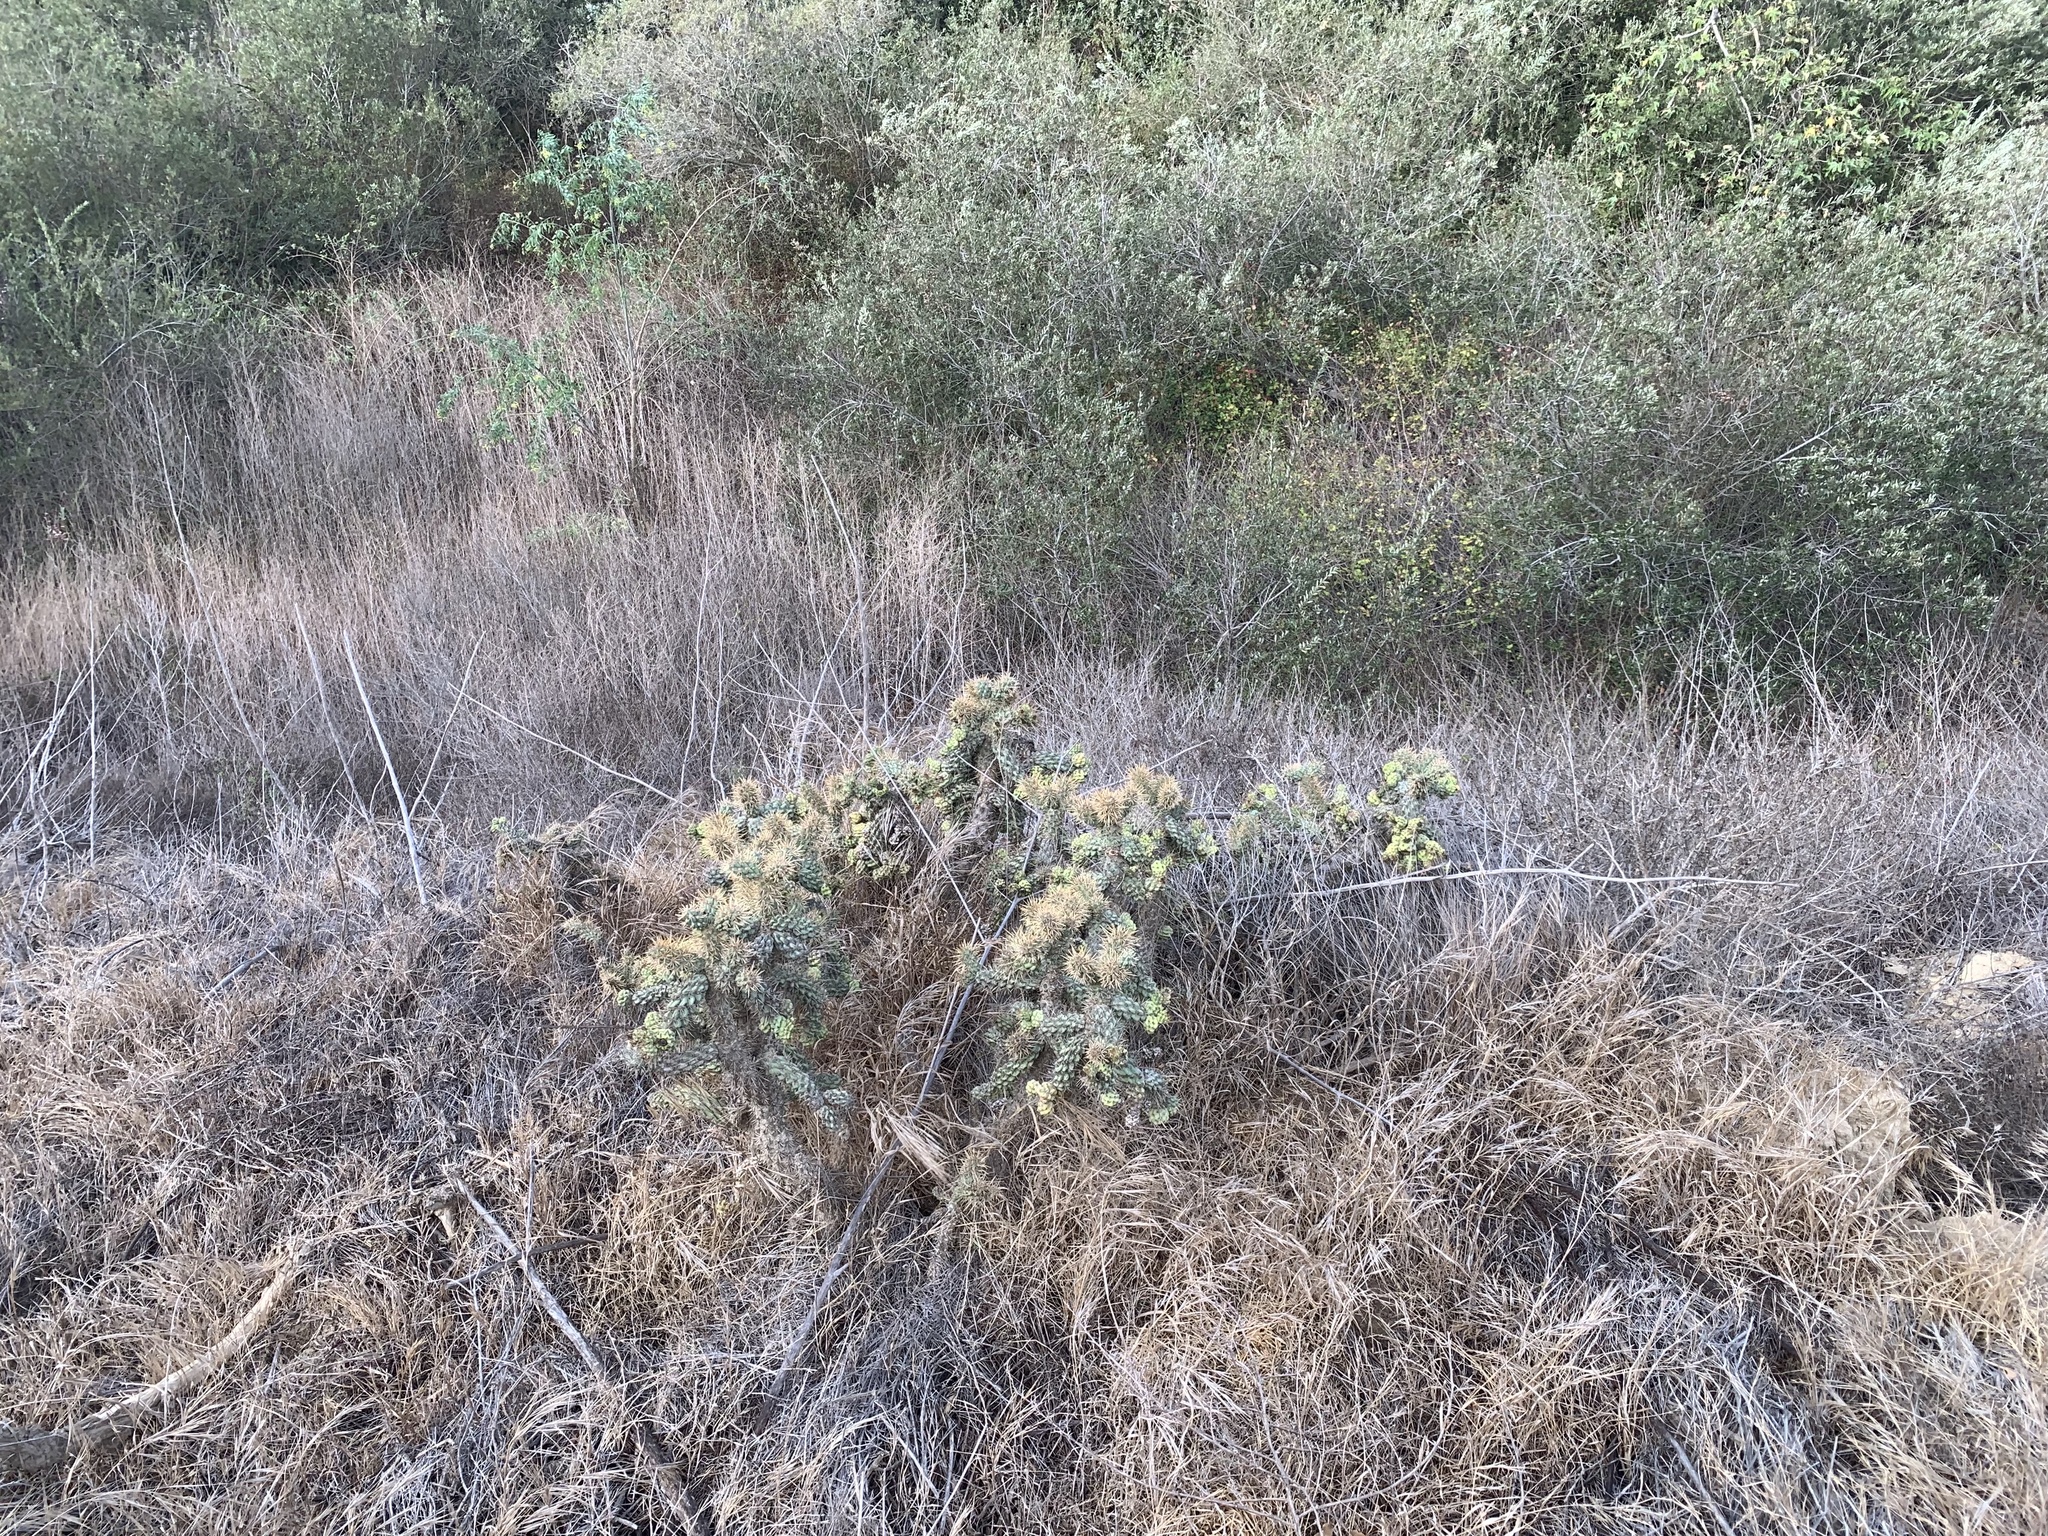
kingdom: Plantae
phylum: Tracheophyta
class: Magnoliopsida
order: Caryophyllales
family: Cactaceae
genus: Cylindropuntia
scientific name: Cylindropuntia prolifera
